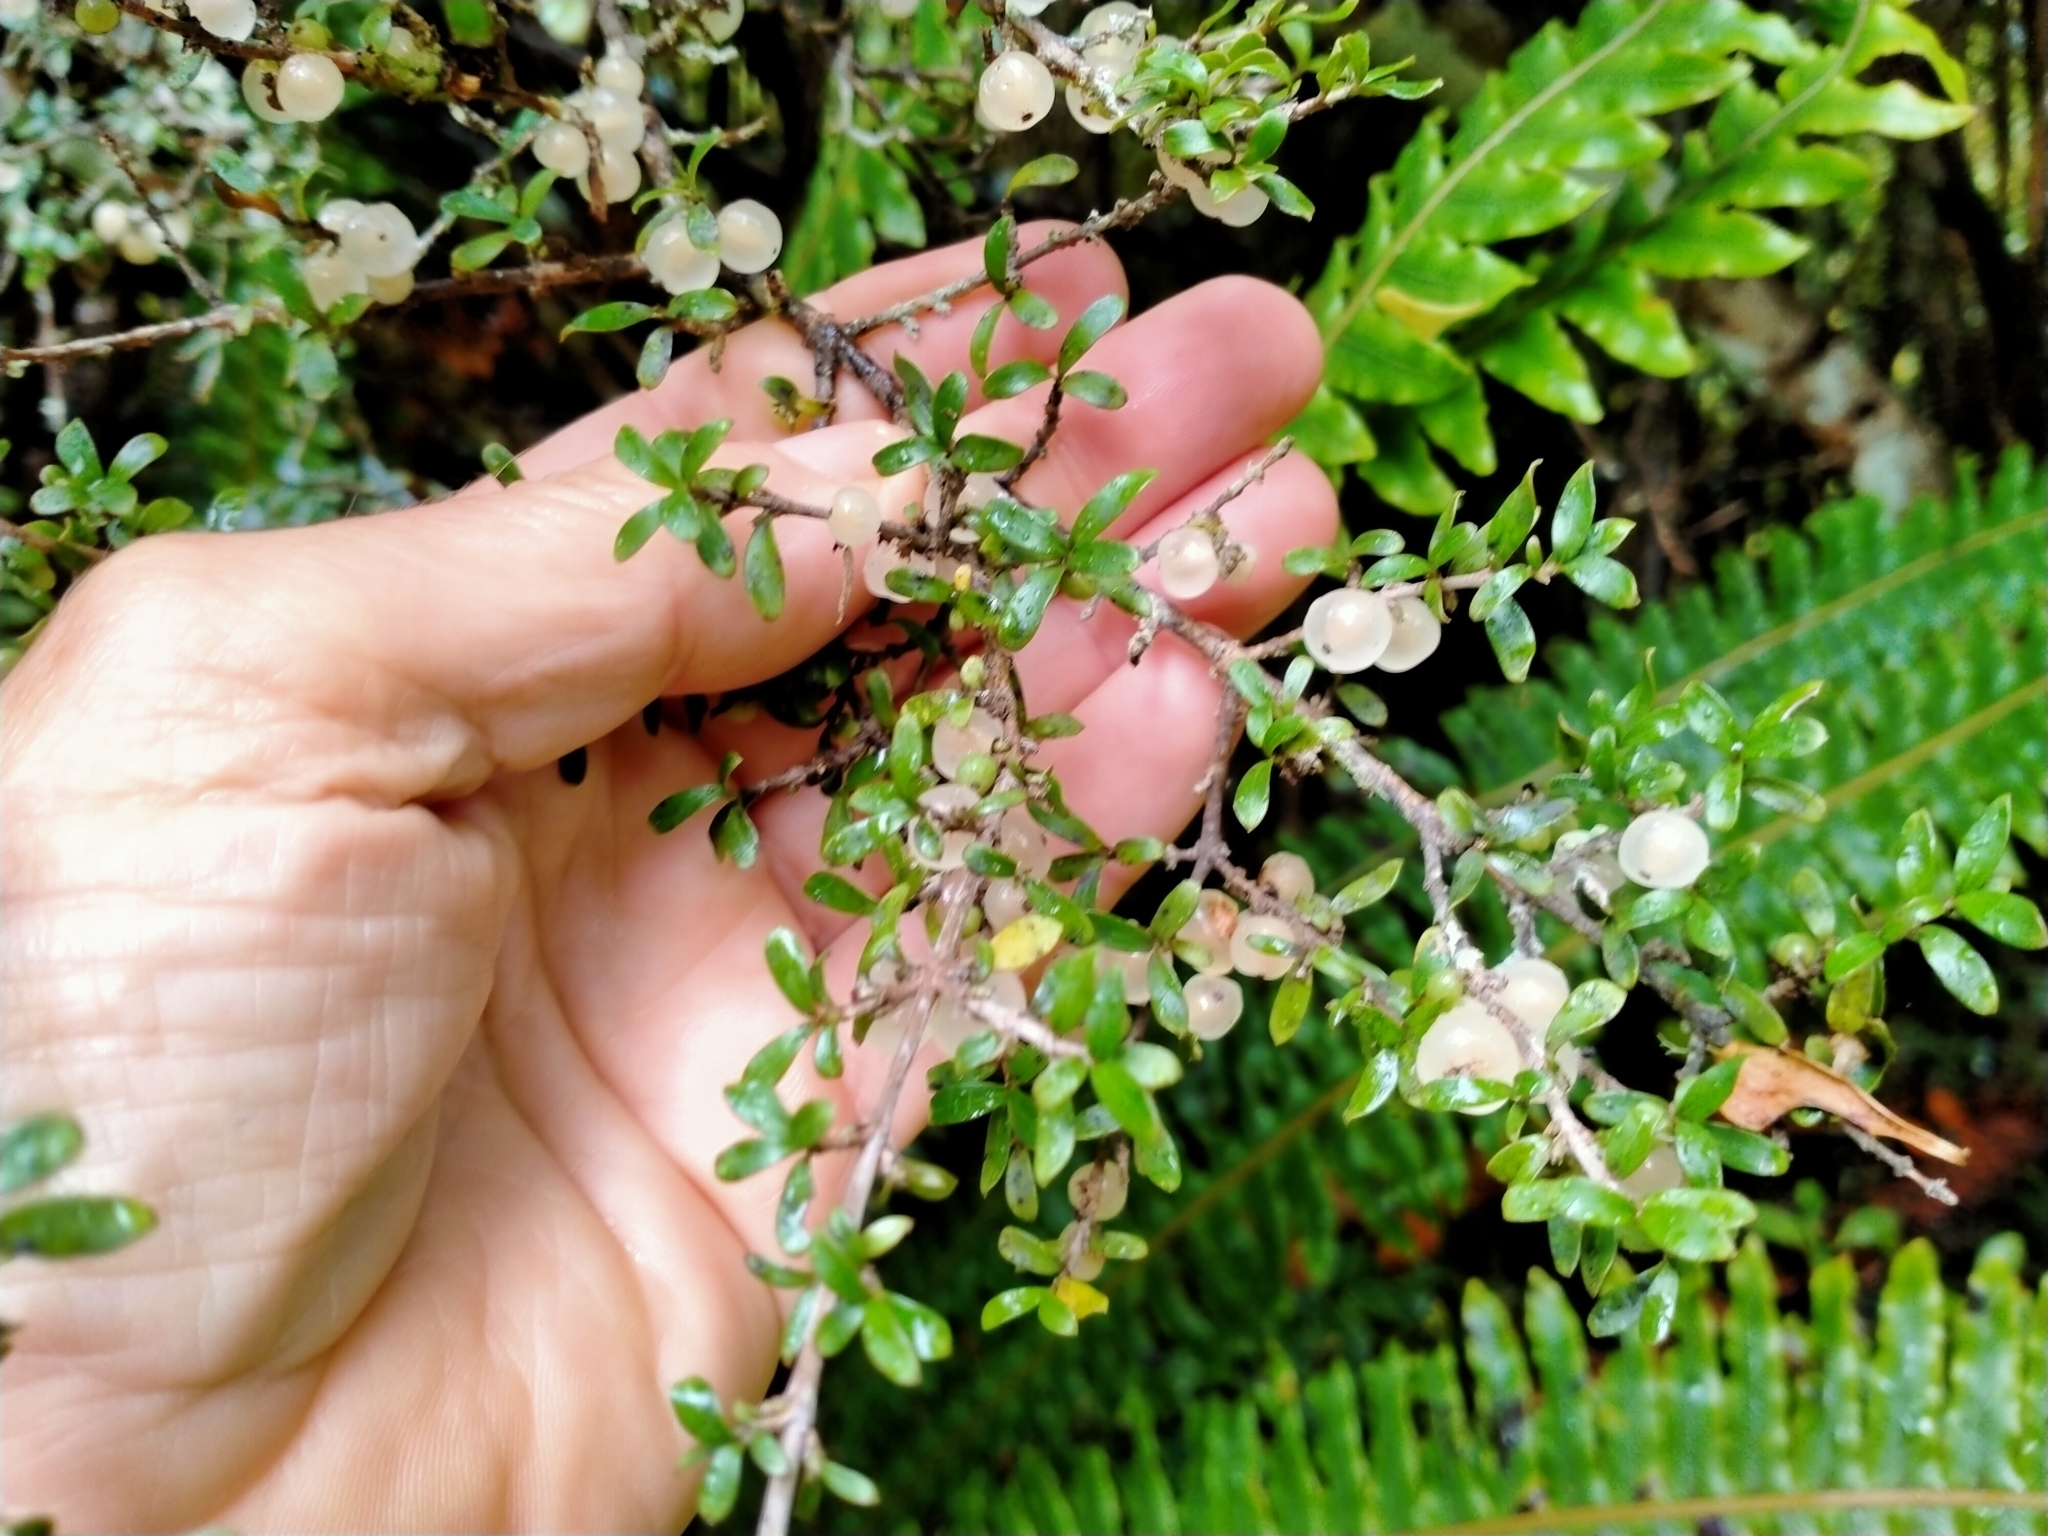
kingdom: Plantae
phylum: Tracheophyta
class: Magnoliopsida
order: Gentianales
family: Rubiaceae
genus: Coprosma
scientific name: Coprosma dumosa
